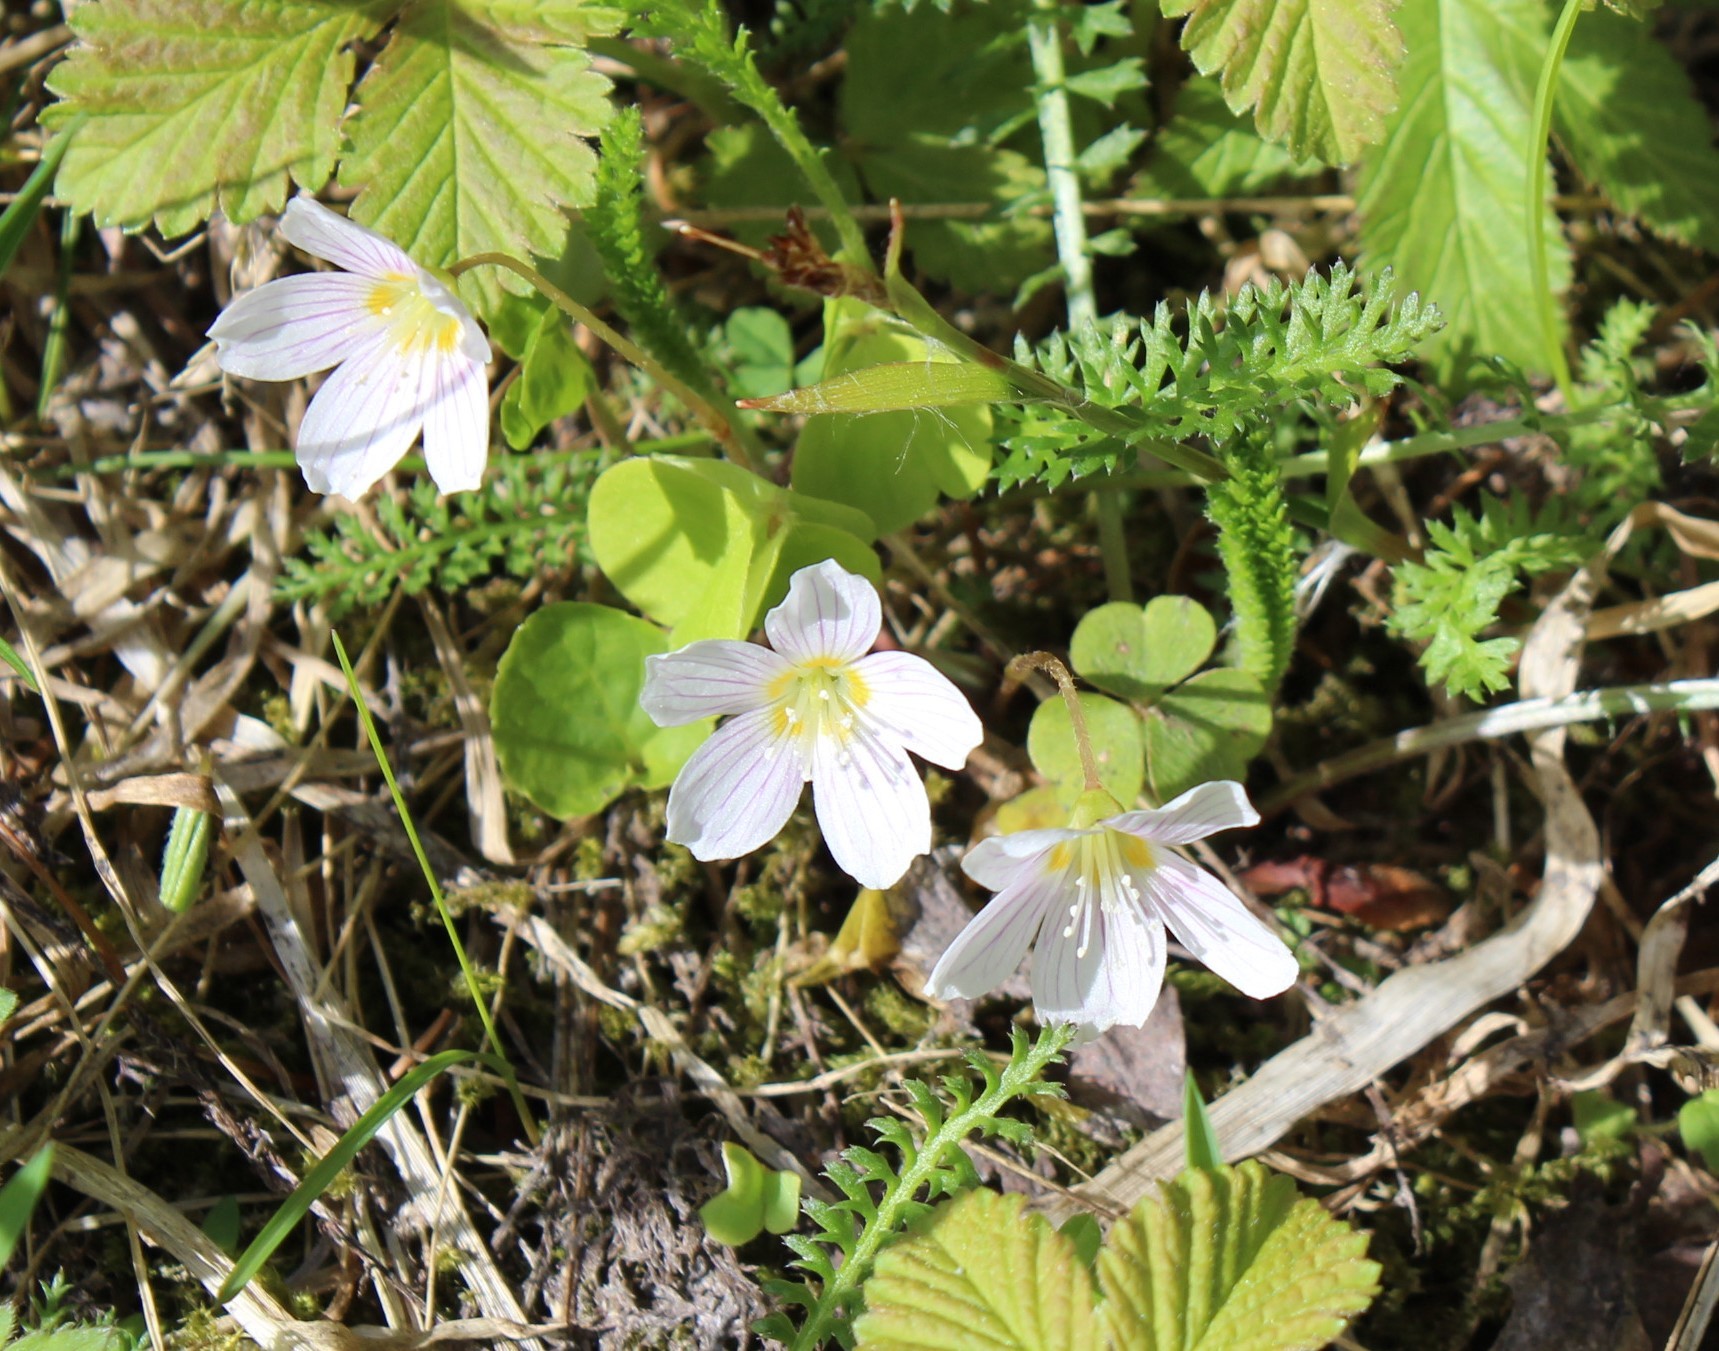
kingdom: Plantae
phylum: Tracheophyta
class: Magnoliopsida
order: Oxalidales
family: Oxalidaceae
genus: Oxalis
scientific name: Oxalis acetosella
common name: Wood-sorrel
